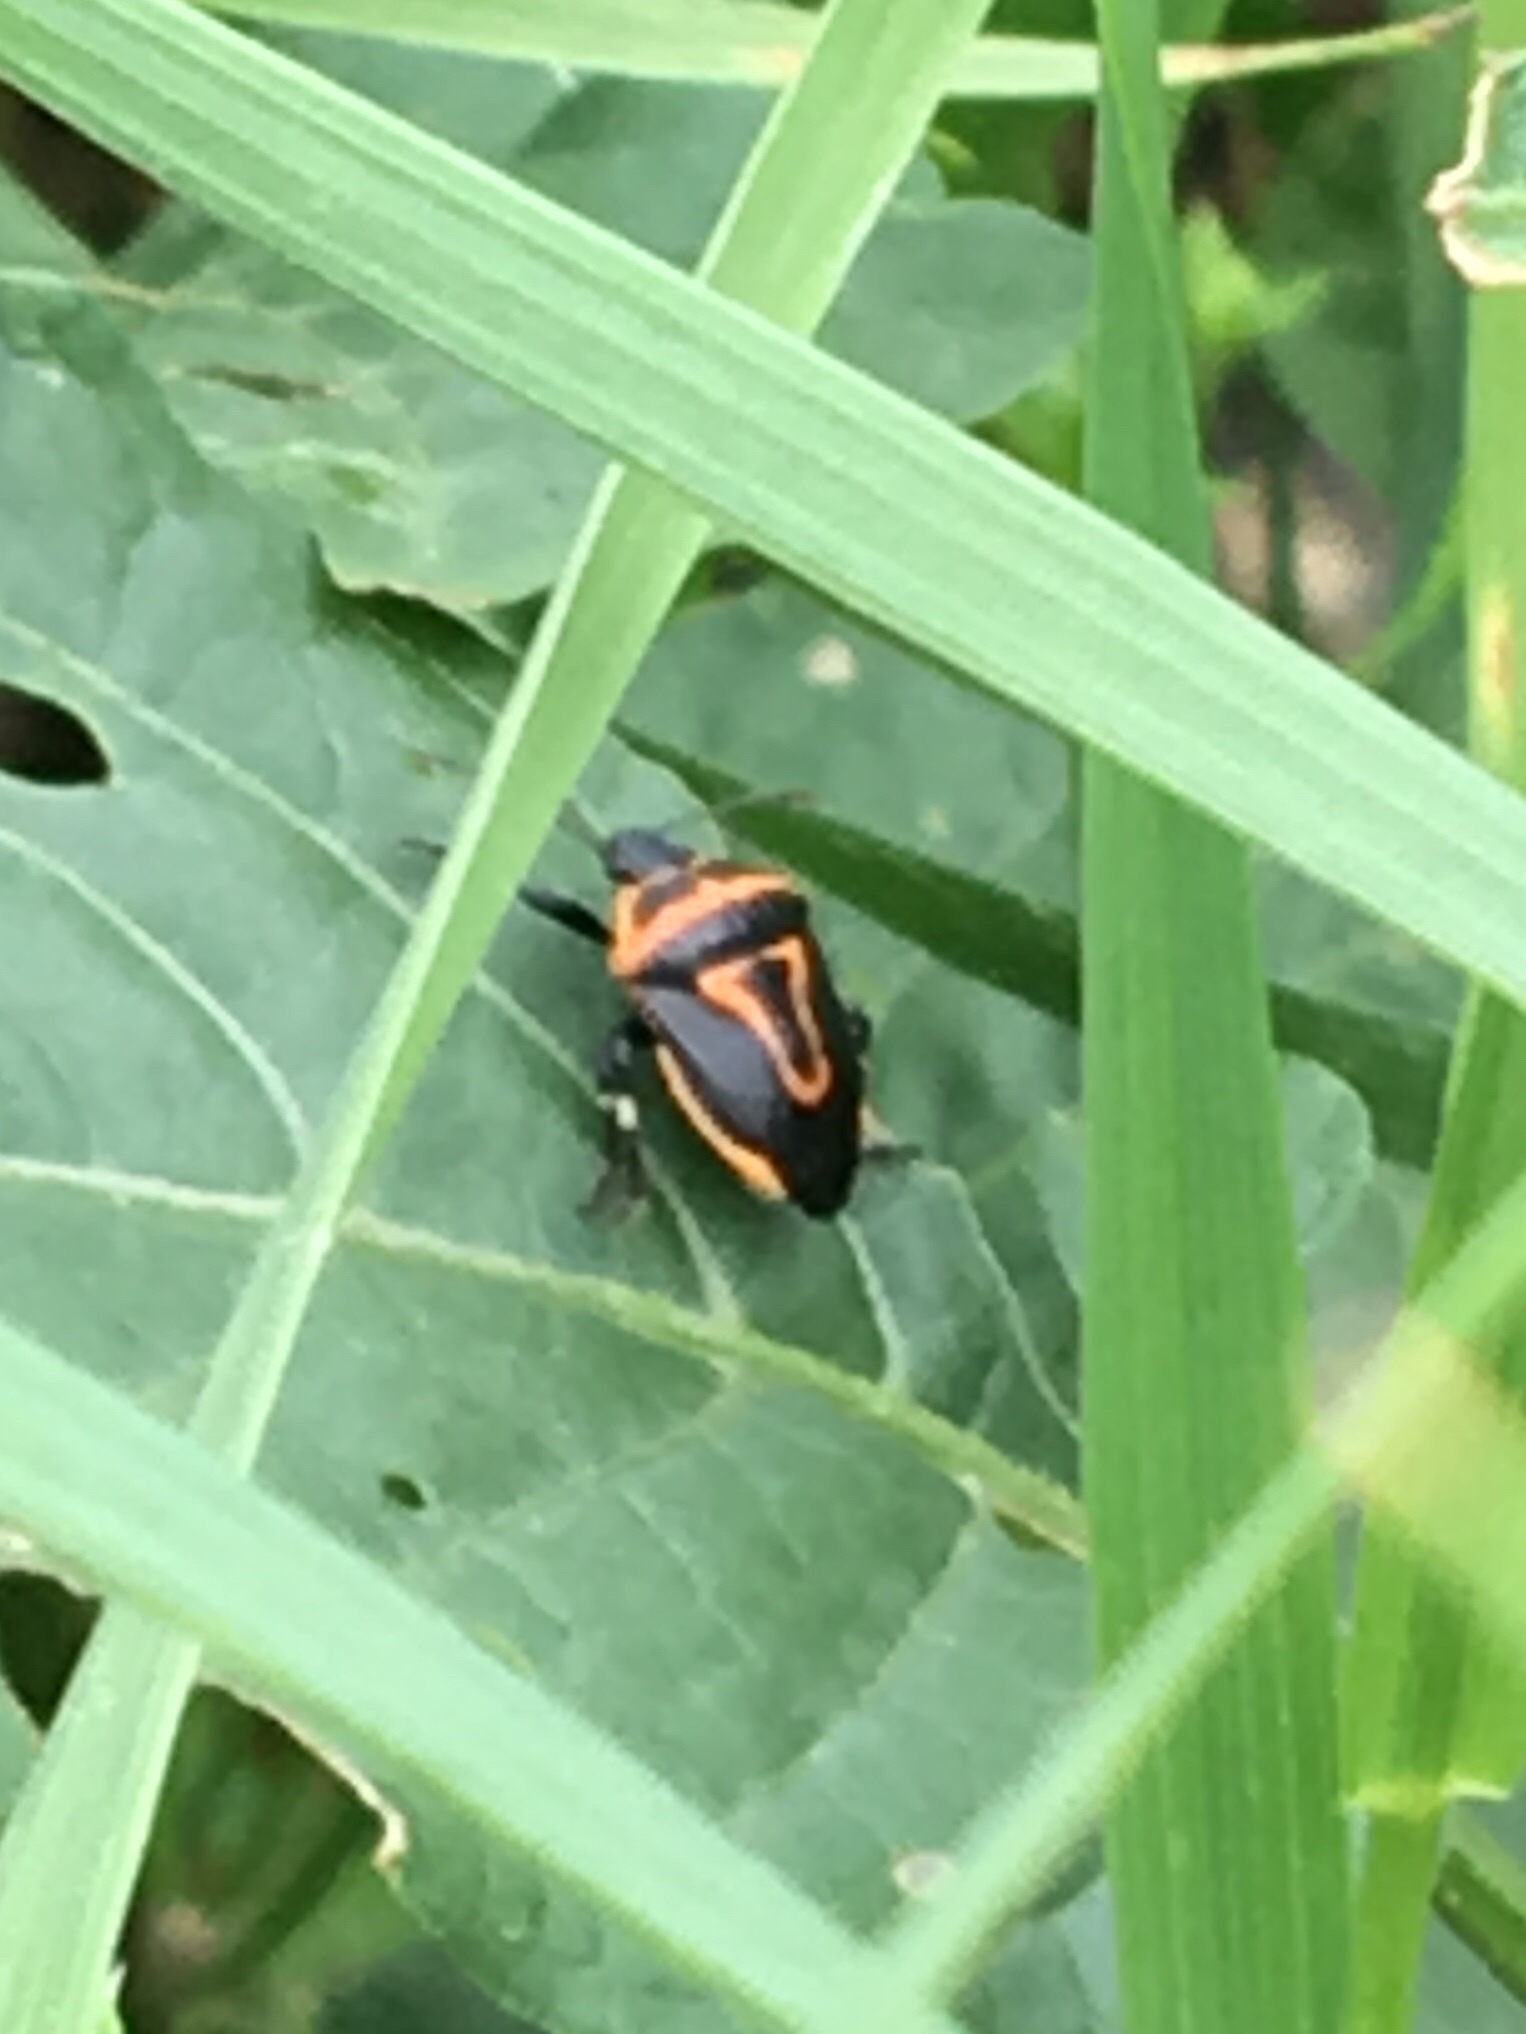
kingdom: Animalia
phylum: Arthropoda
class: Insecta
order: Hemiptera
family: Pentatomidae
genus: Perillus
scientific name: Perillus bioculatus
